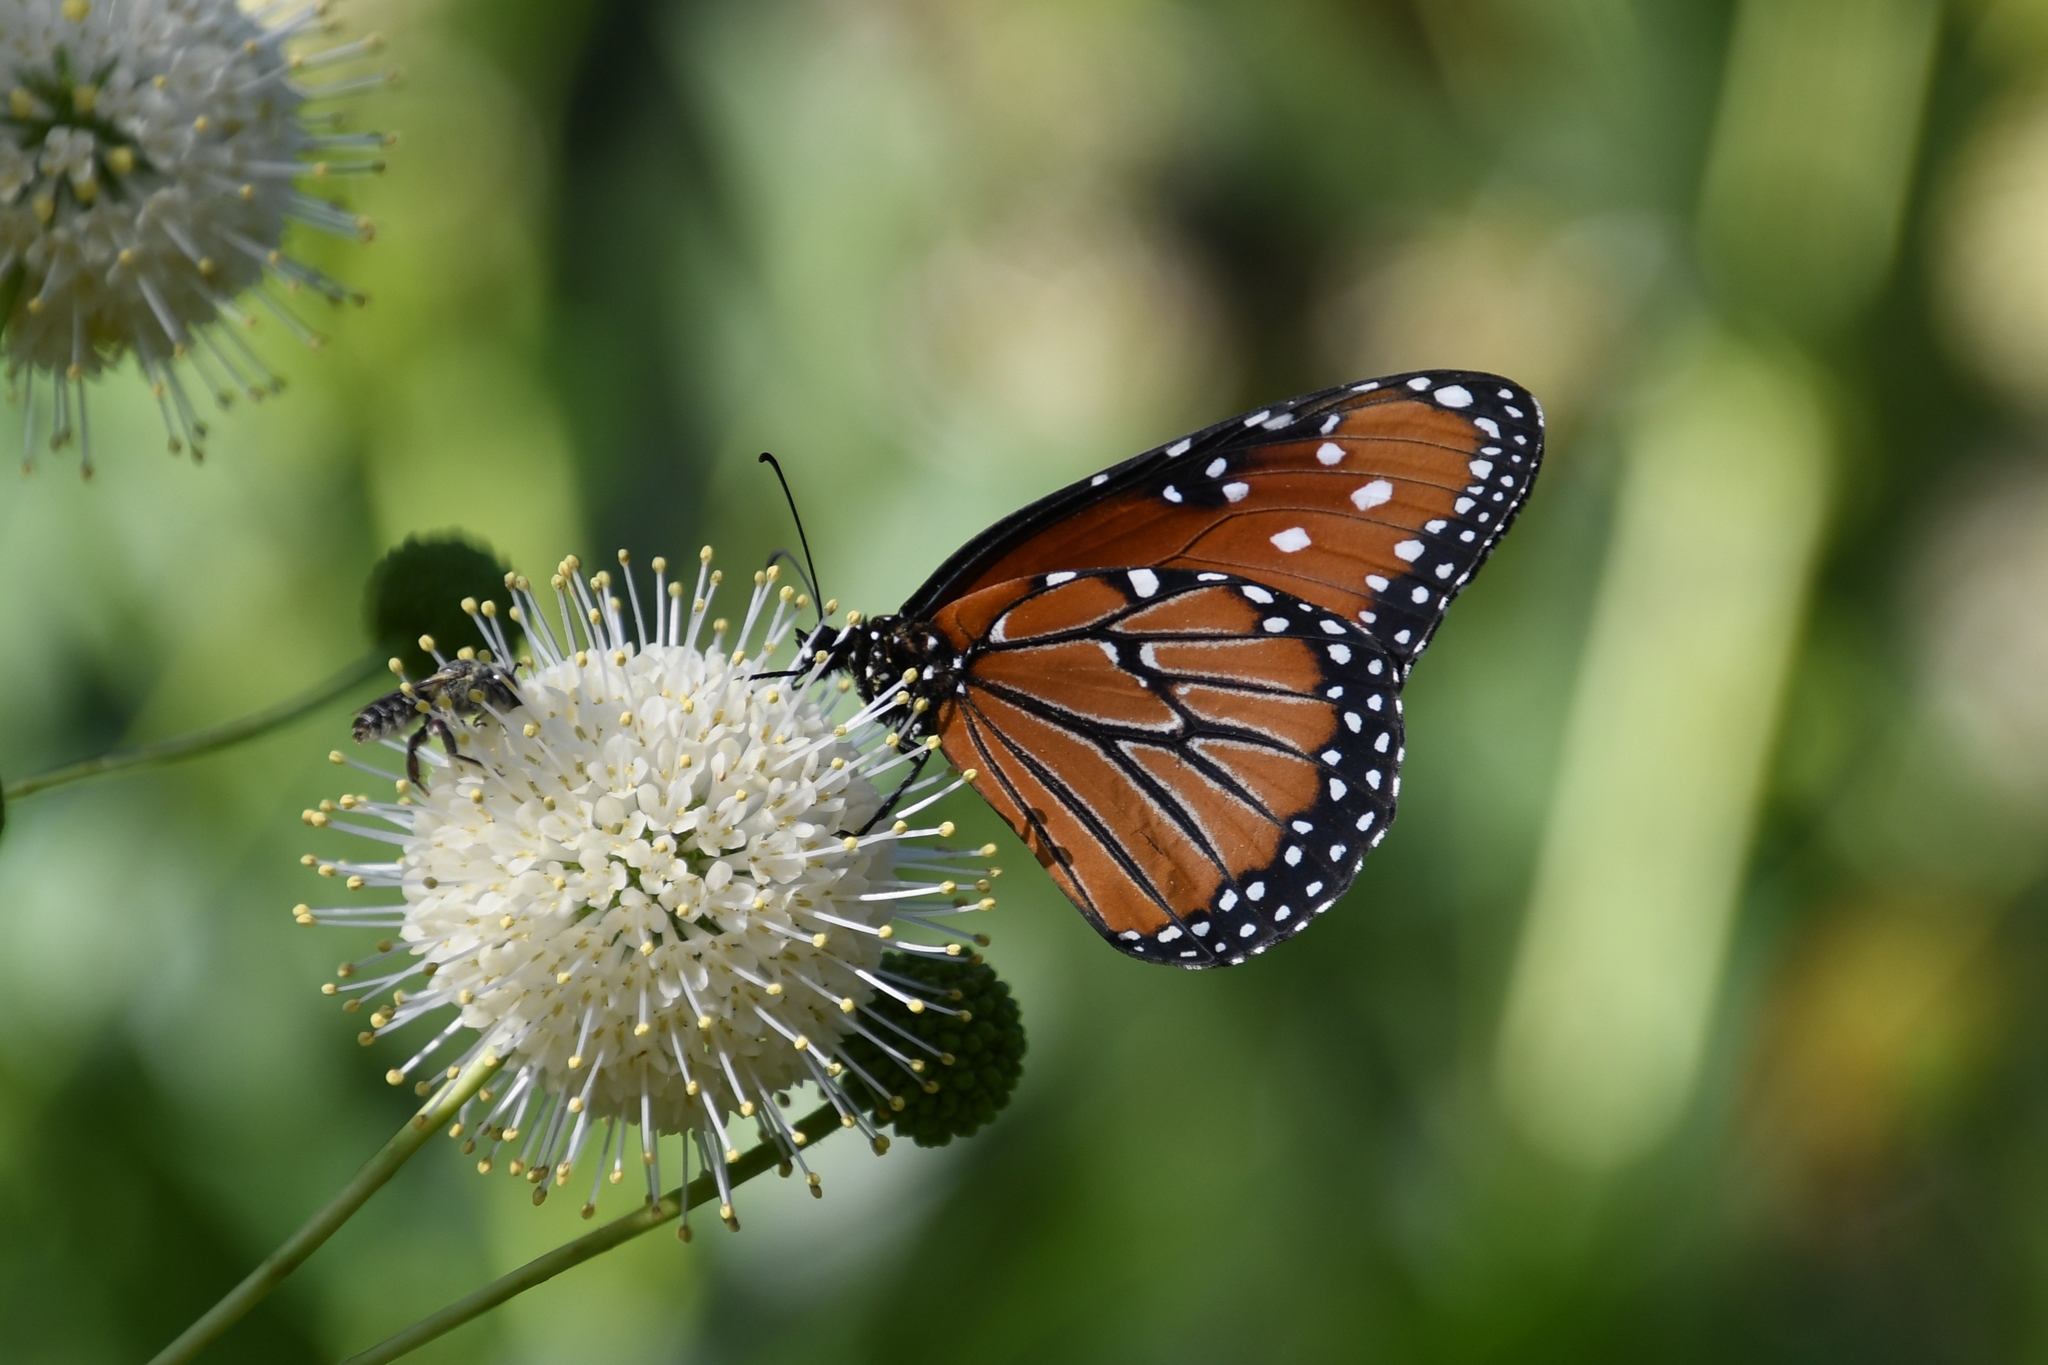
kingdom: Animalia
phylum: Arthropoda
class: Insecta
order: Lepidoptera
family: Nymphalidae
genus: Danaus
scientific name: Danaus gilippus
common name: Queen
